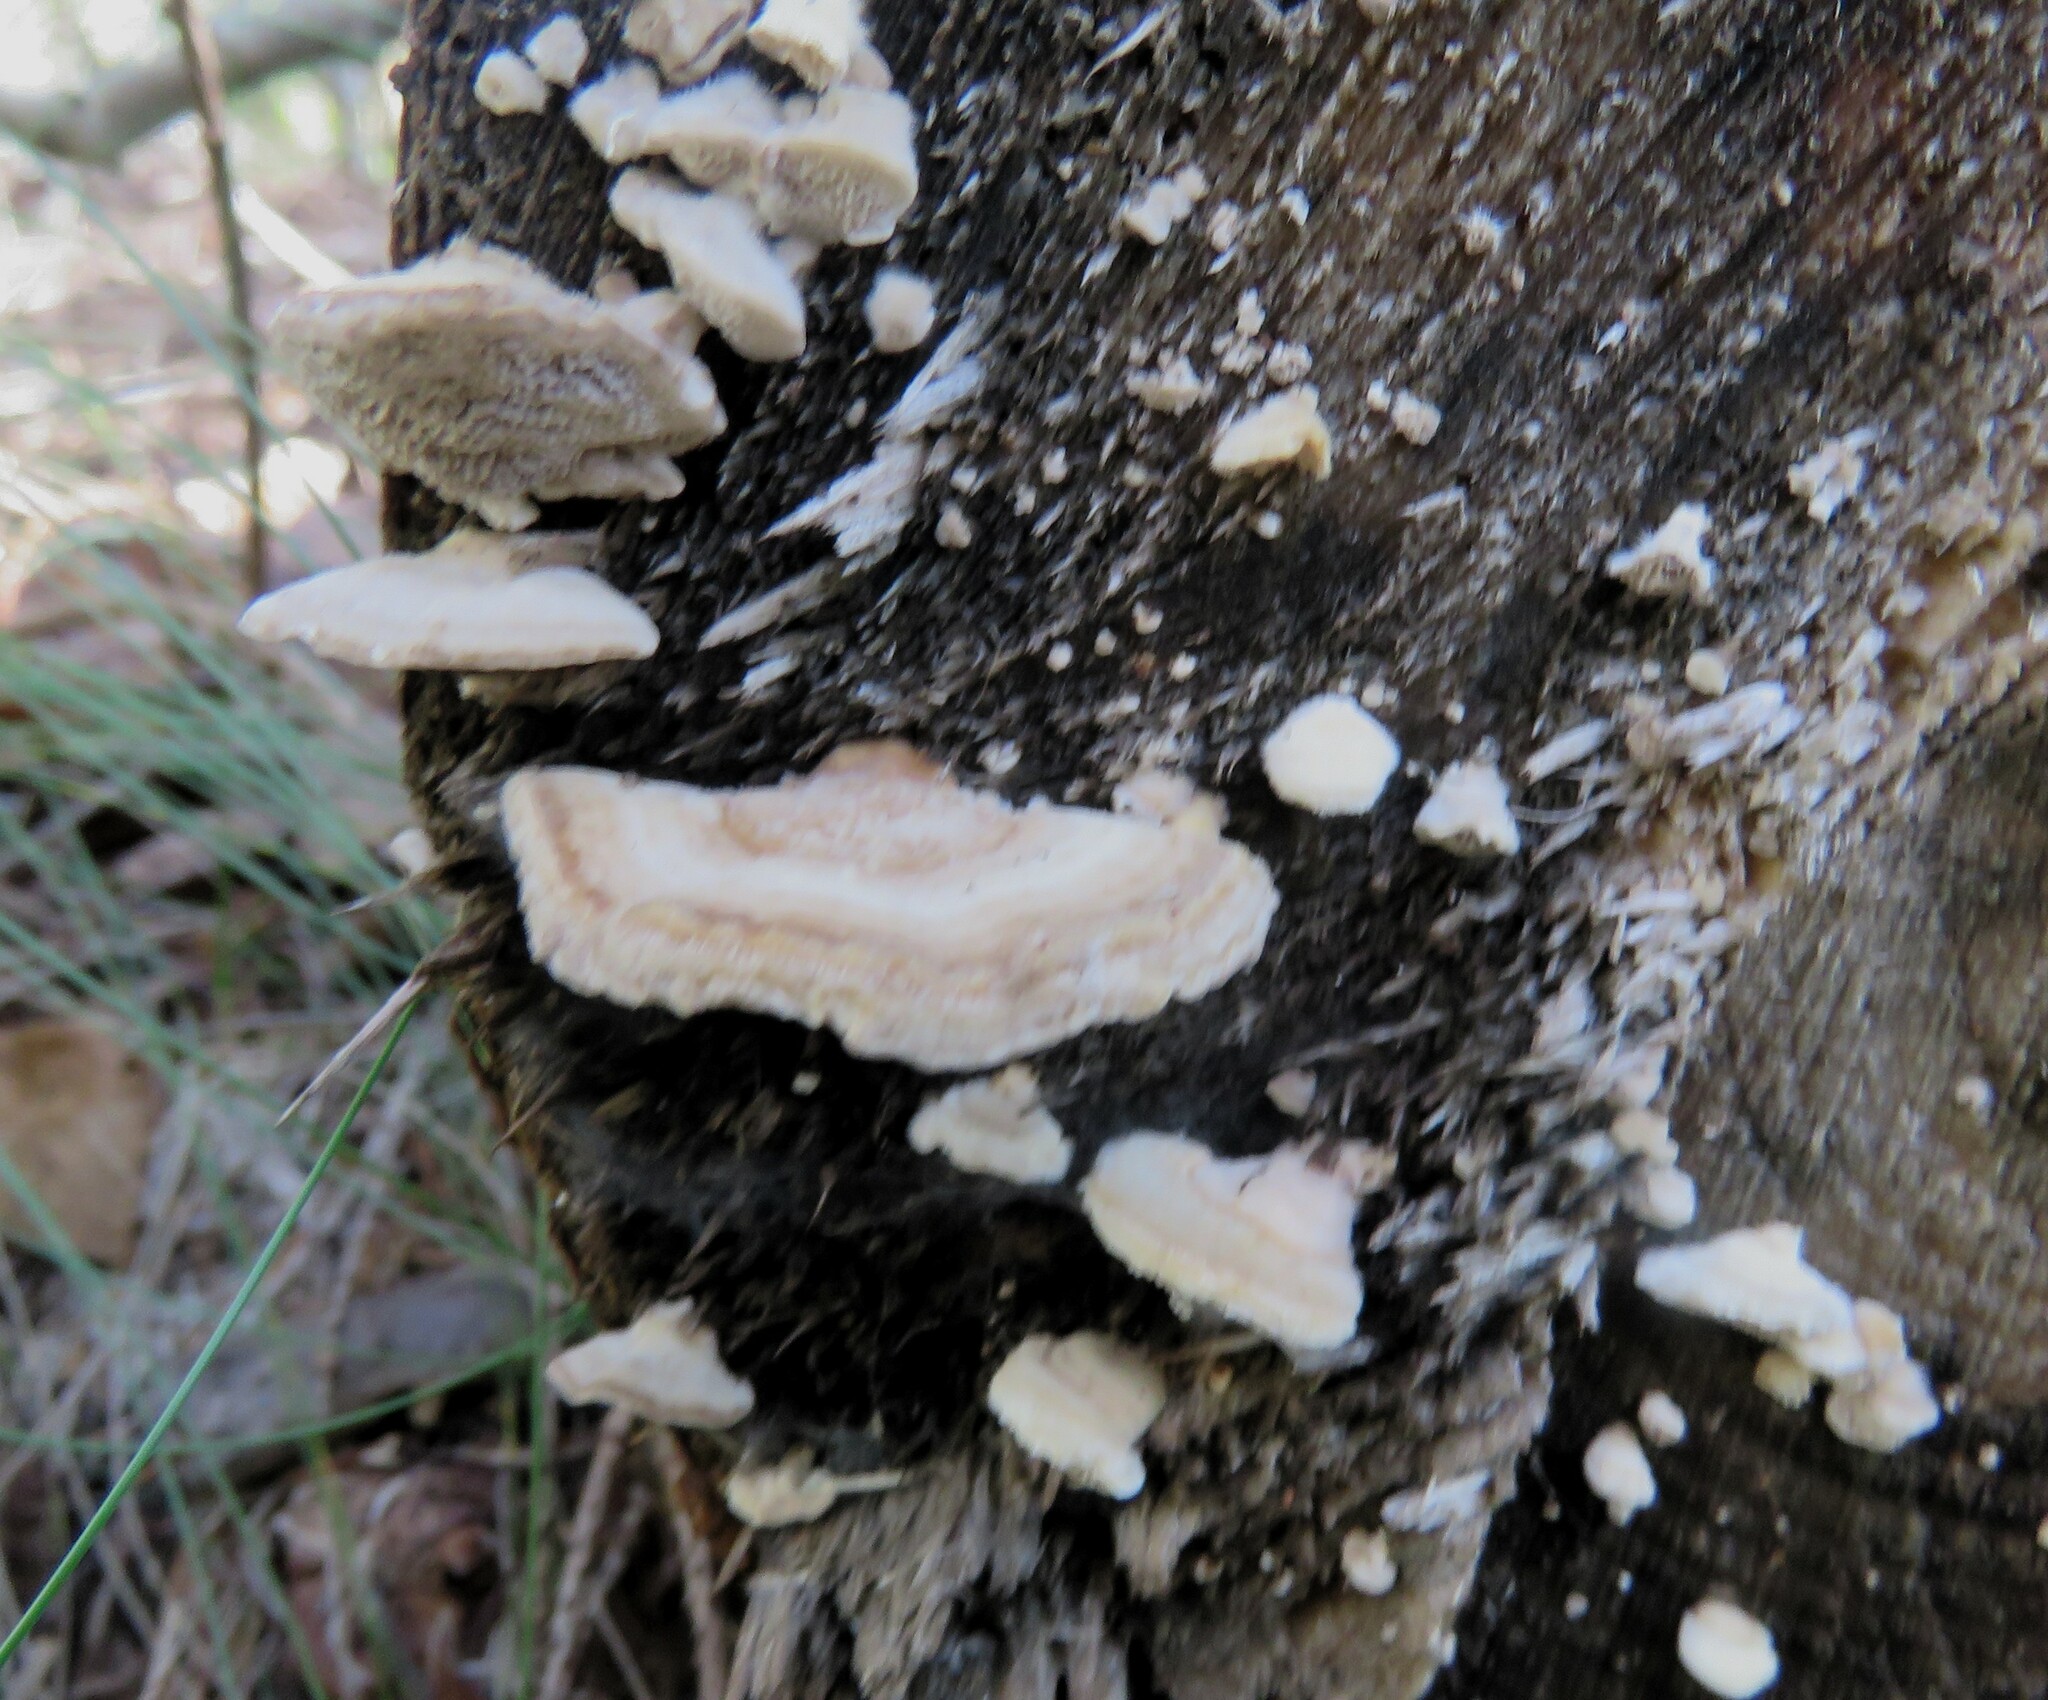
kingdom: Fungi
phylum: Basidiomycota
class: Agaricomycetes
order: Polyporales
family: Polyporaceae
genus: Trametes
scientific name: Trametes ochracea
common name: Ochre bracket
